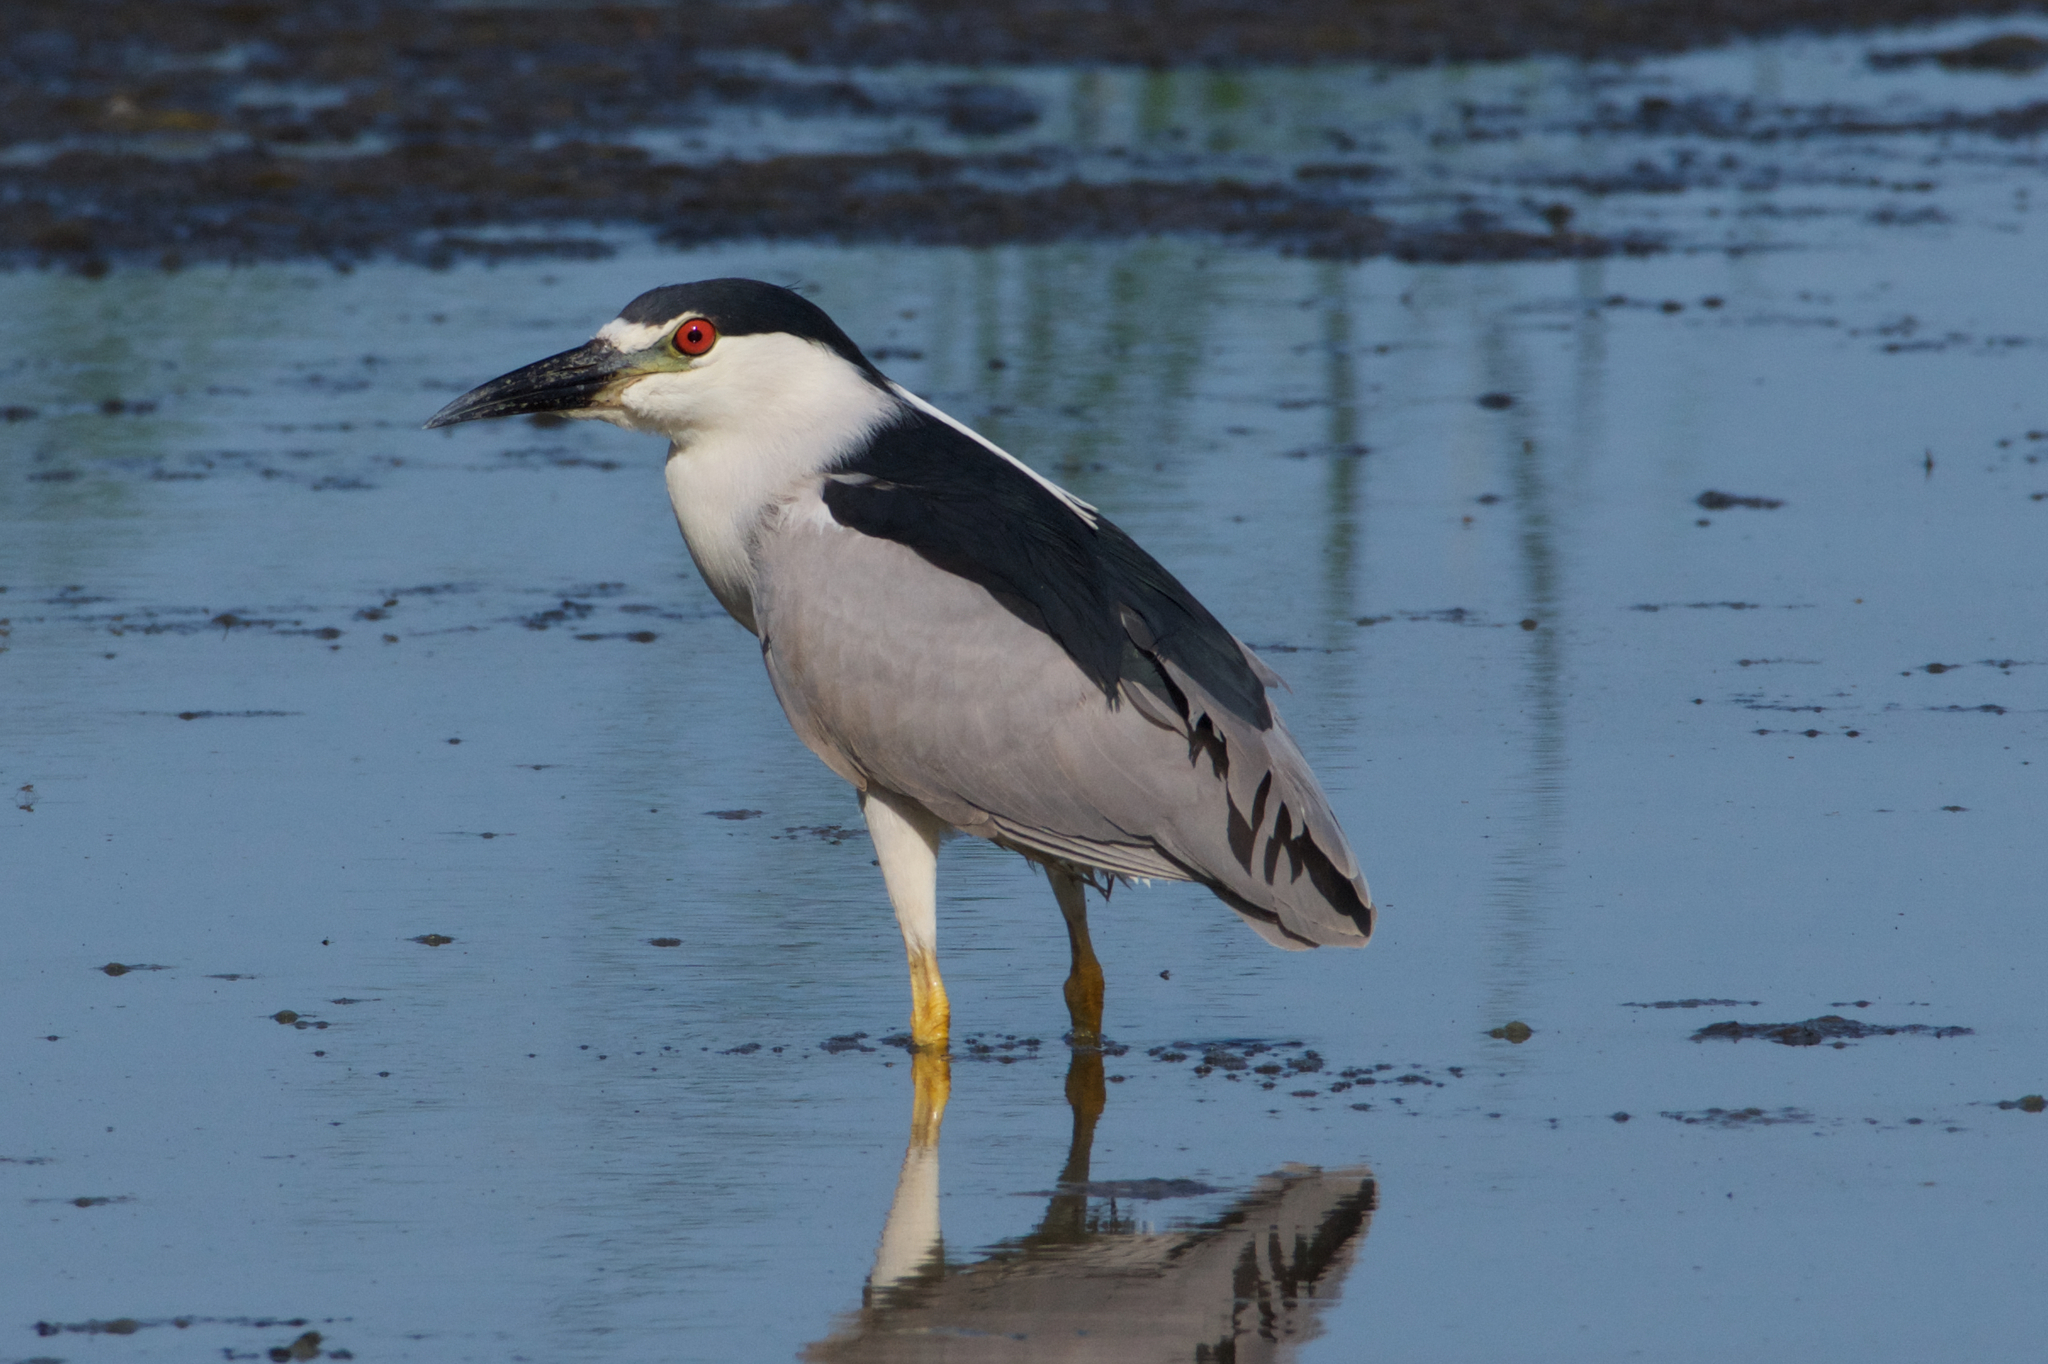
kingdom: Animalia
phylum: Chordata
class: Aves
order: Pelecaniformes
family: Ardeidae
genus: Nycticorax
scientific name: Nycticorax nycticorax
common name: Black-crowned night heron
